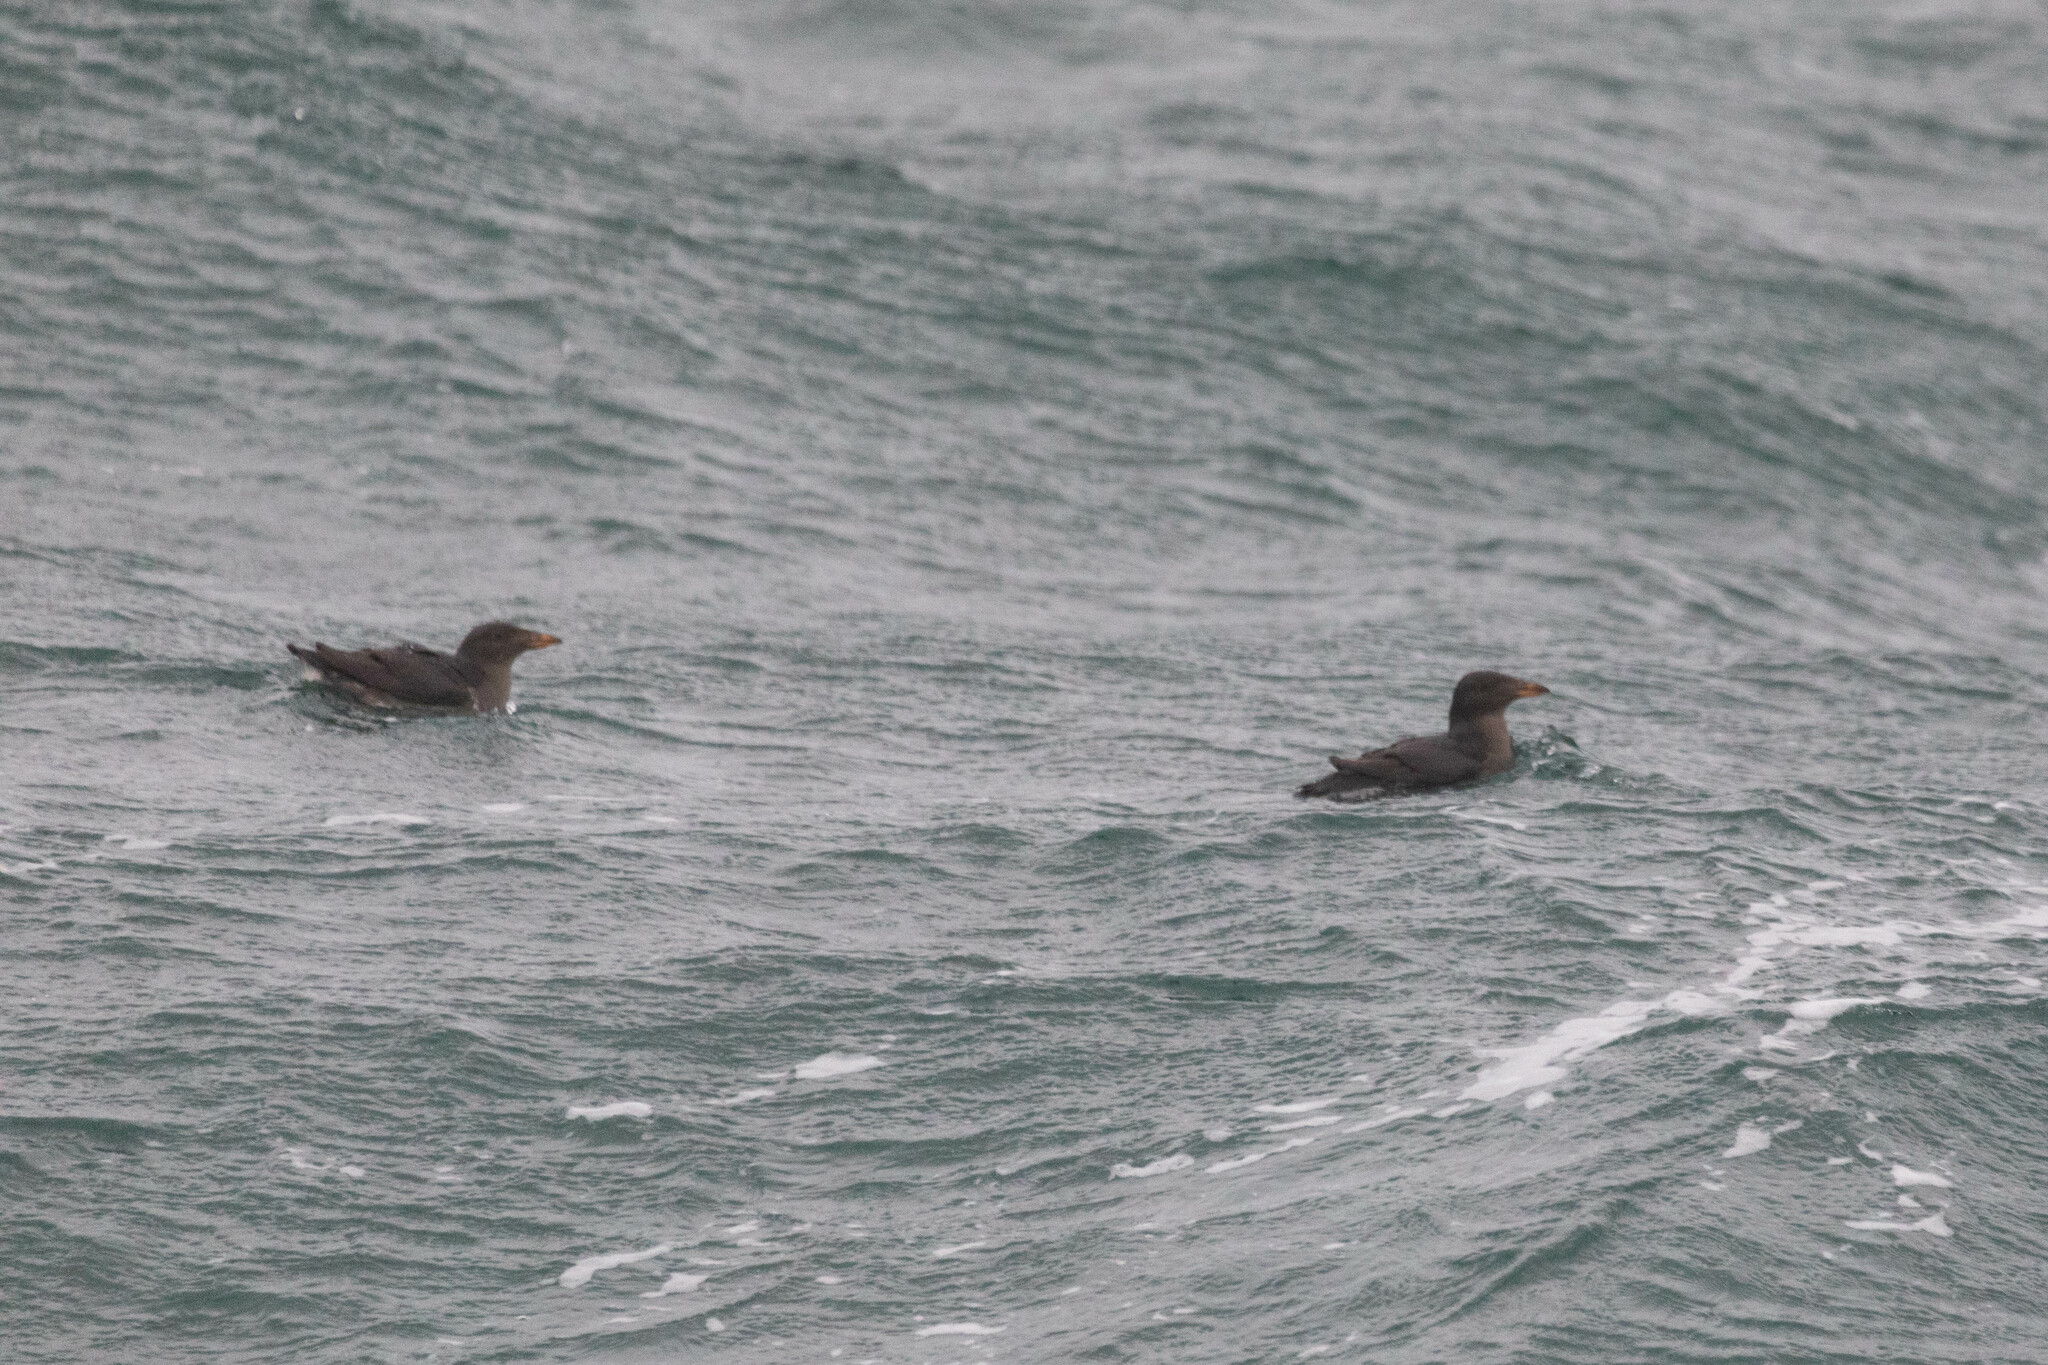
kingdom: Animalia
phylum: Chordata
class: Aves
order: Charadriiformes
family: Alcidae
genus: Cerorhinca
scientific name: Cerorhinca monocerata
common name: Rhinoceros auklet
